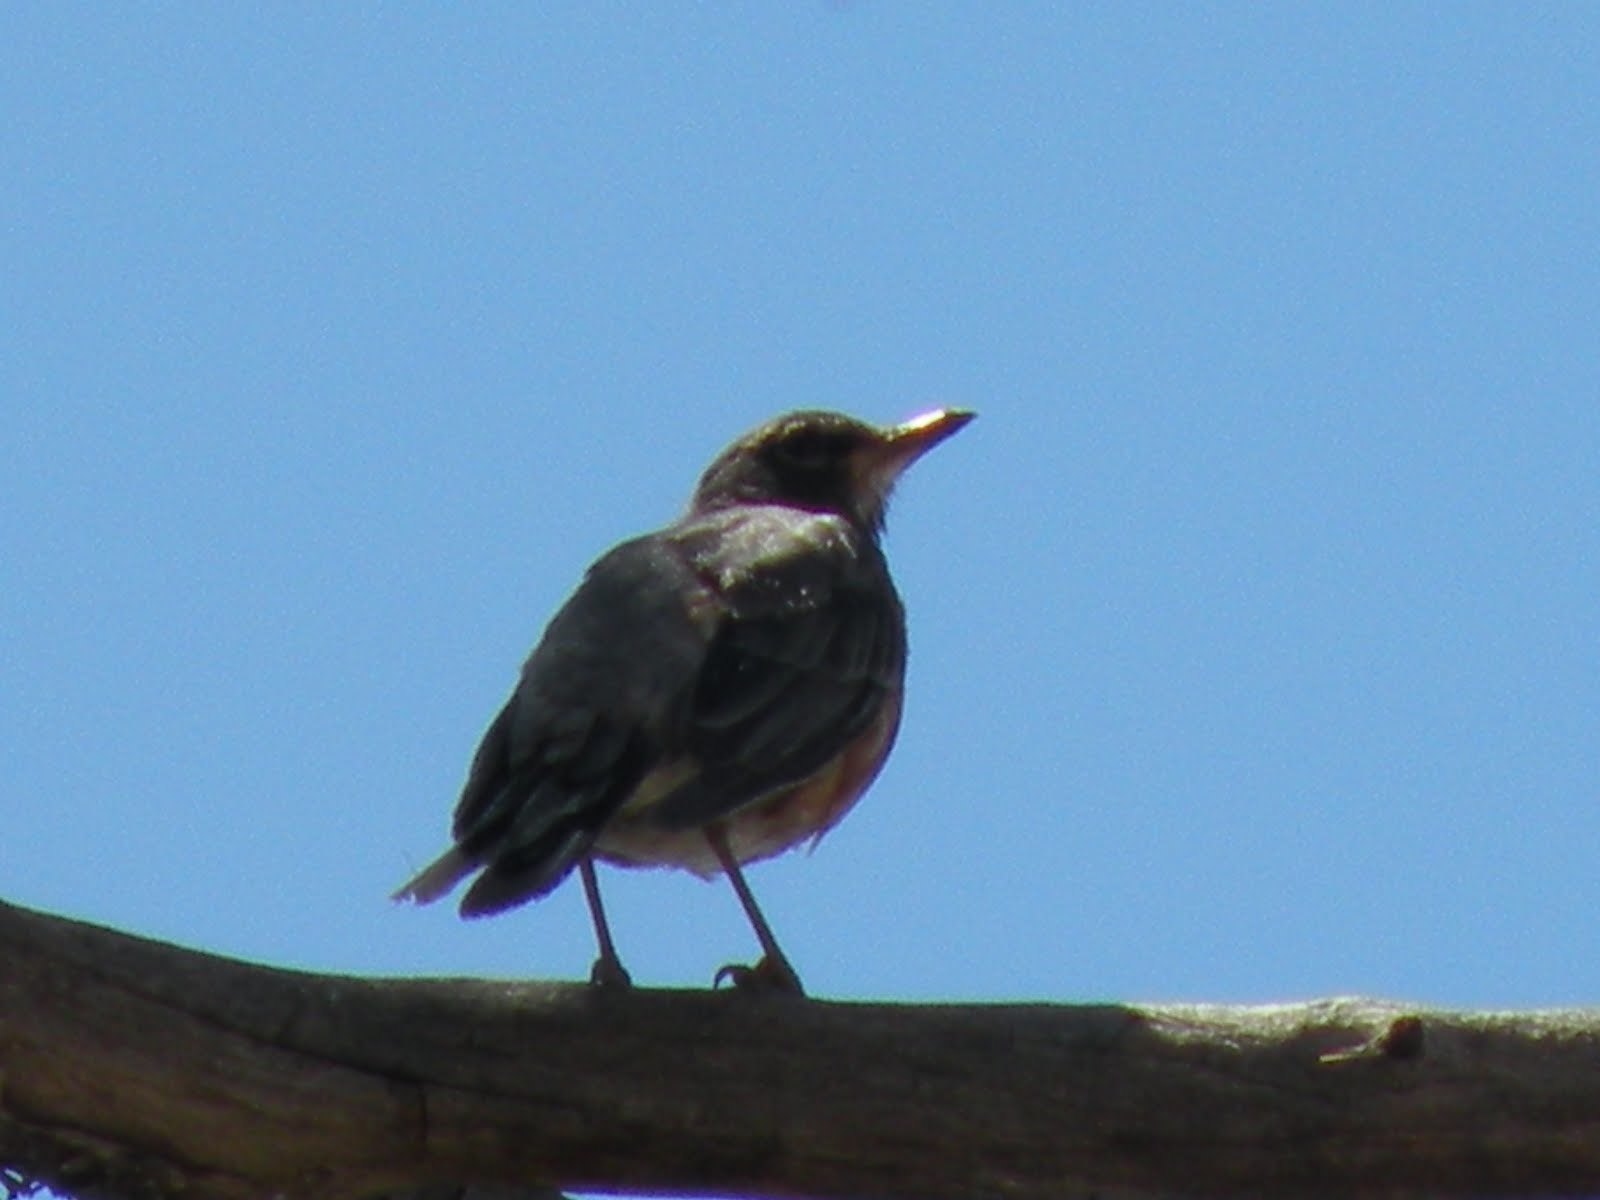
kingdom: Animalia
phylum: Chordata
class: Aves
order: Passeriformes
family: Turdidae
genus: Turdus
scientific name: Turdus migratorius
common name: American robin
